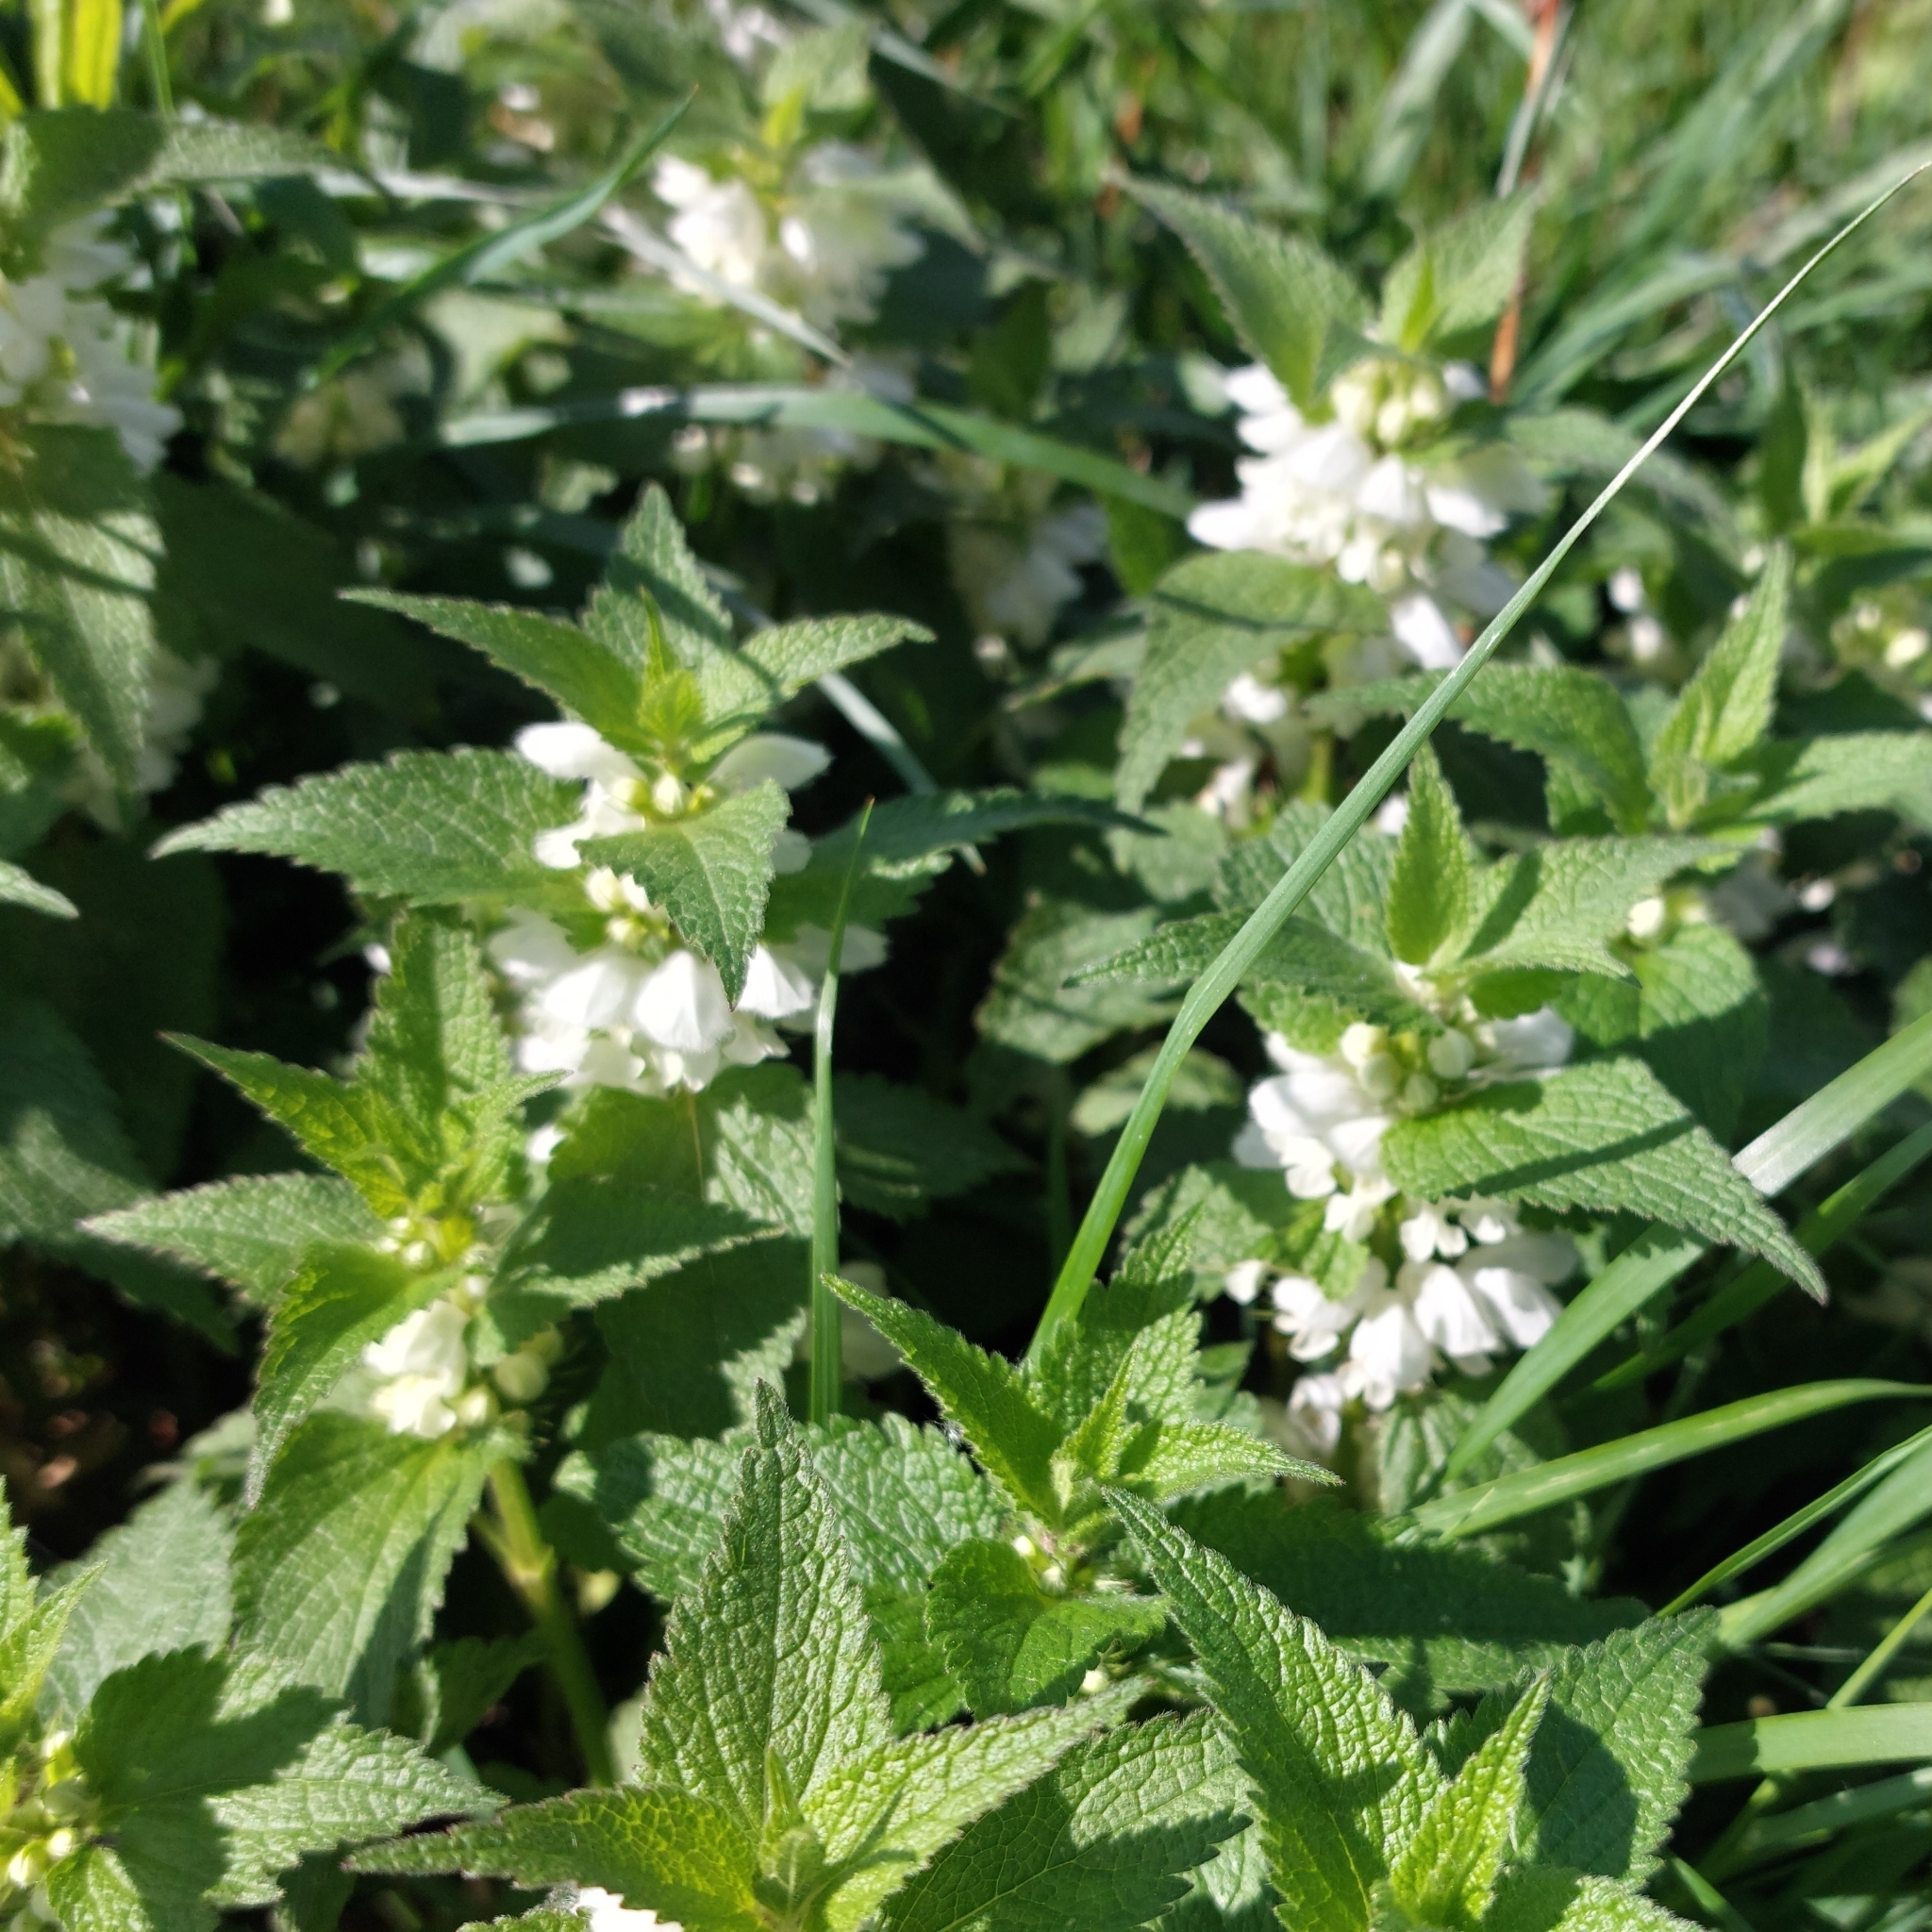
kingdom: Plantae
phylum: Tracheophyta
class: Magnoliopsida
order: Lamiales
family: Lamiaceae
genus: Lamium
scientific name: Lamium album
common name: White dead-nettle
